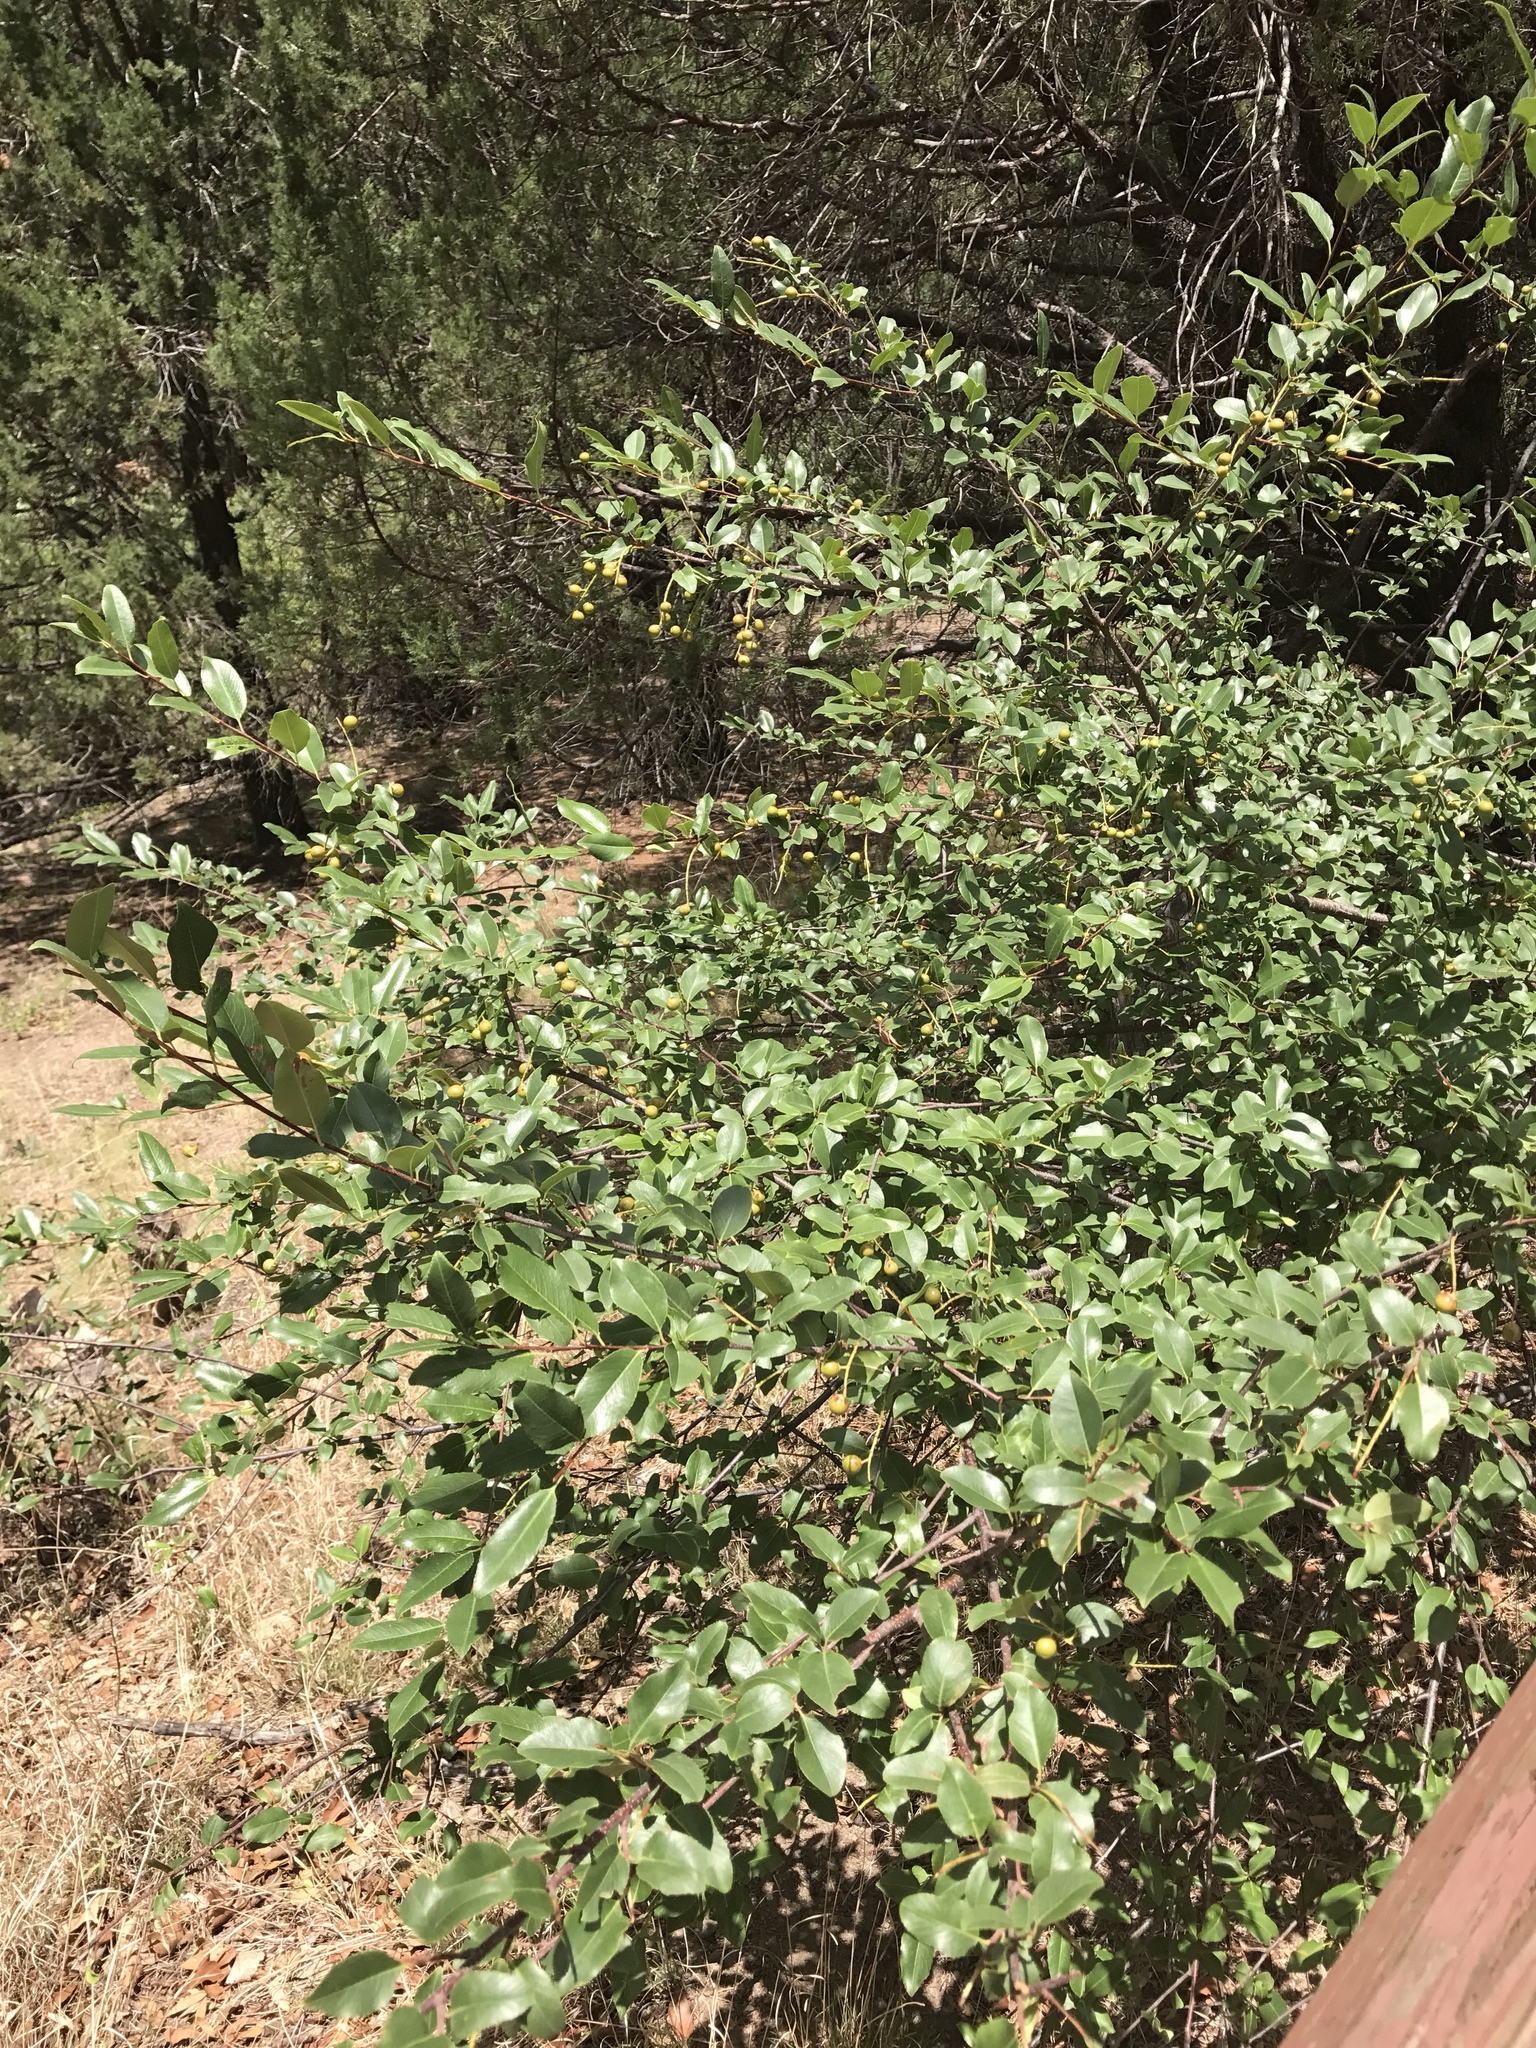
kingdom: Plantae
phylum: Tracheophyta
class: Magnoliopsida
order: Rosales
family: Rosaceae
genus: Prunus
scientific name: Prunus serotina
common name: Black cherry
